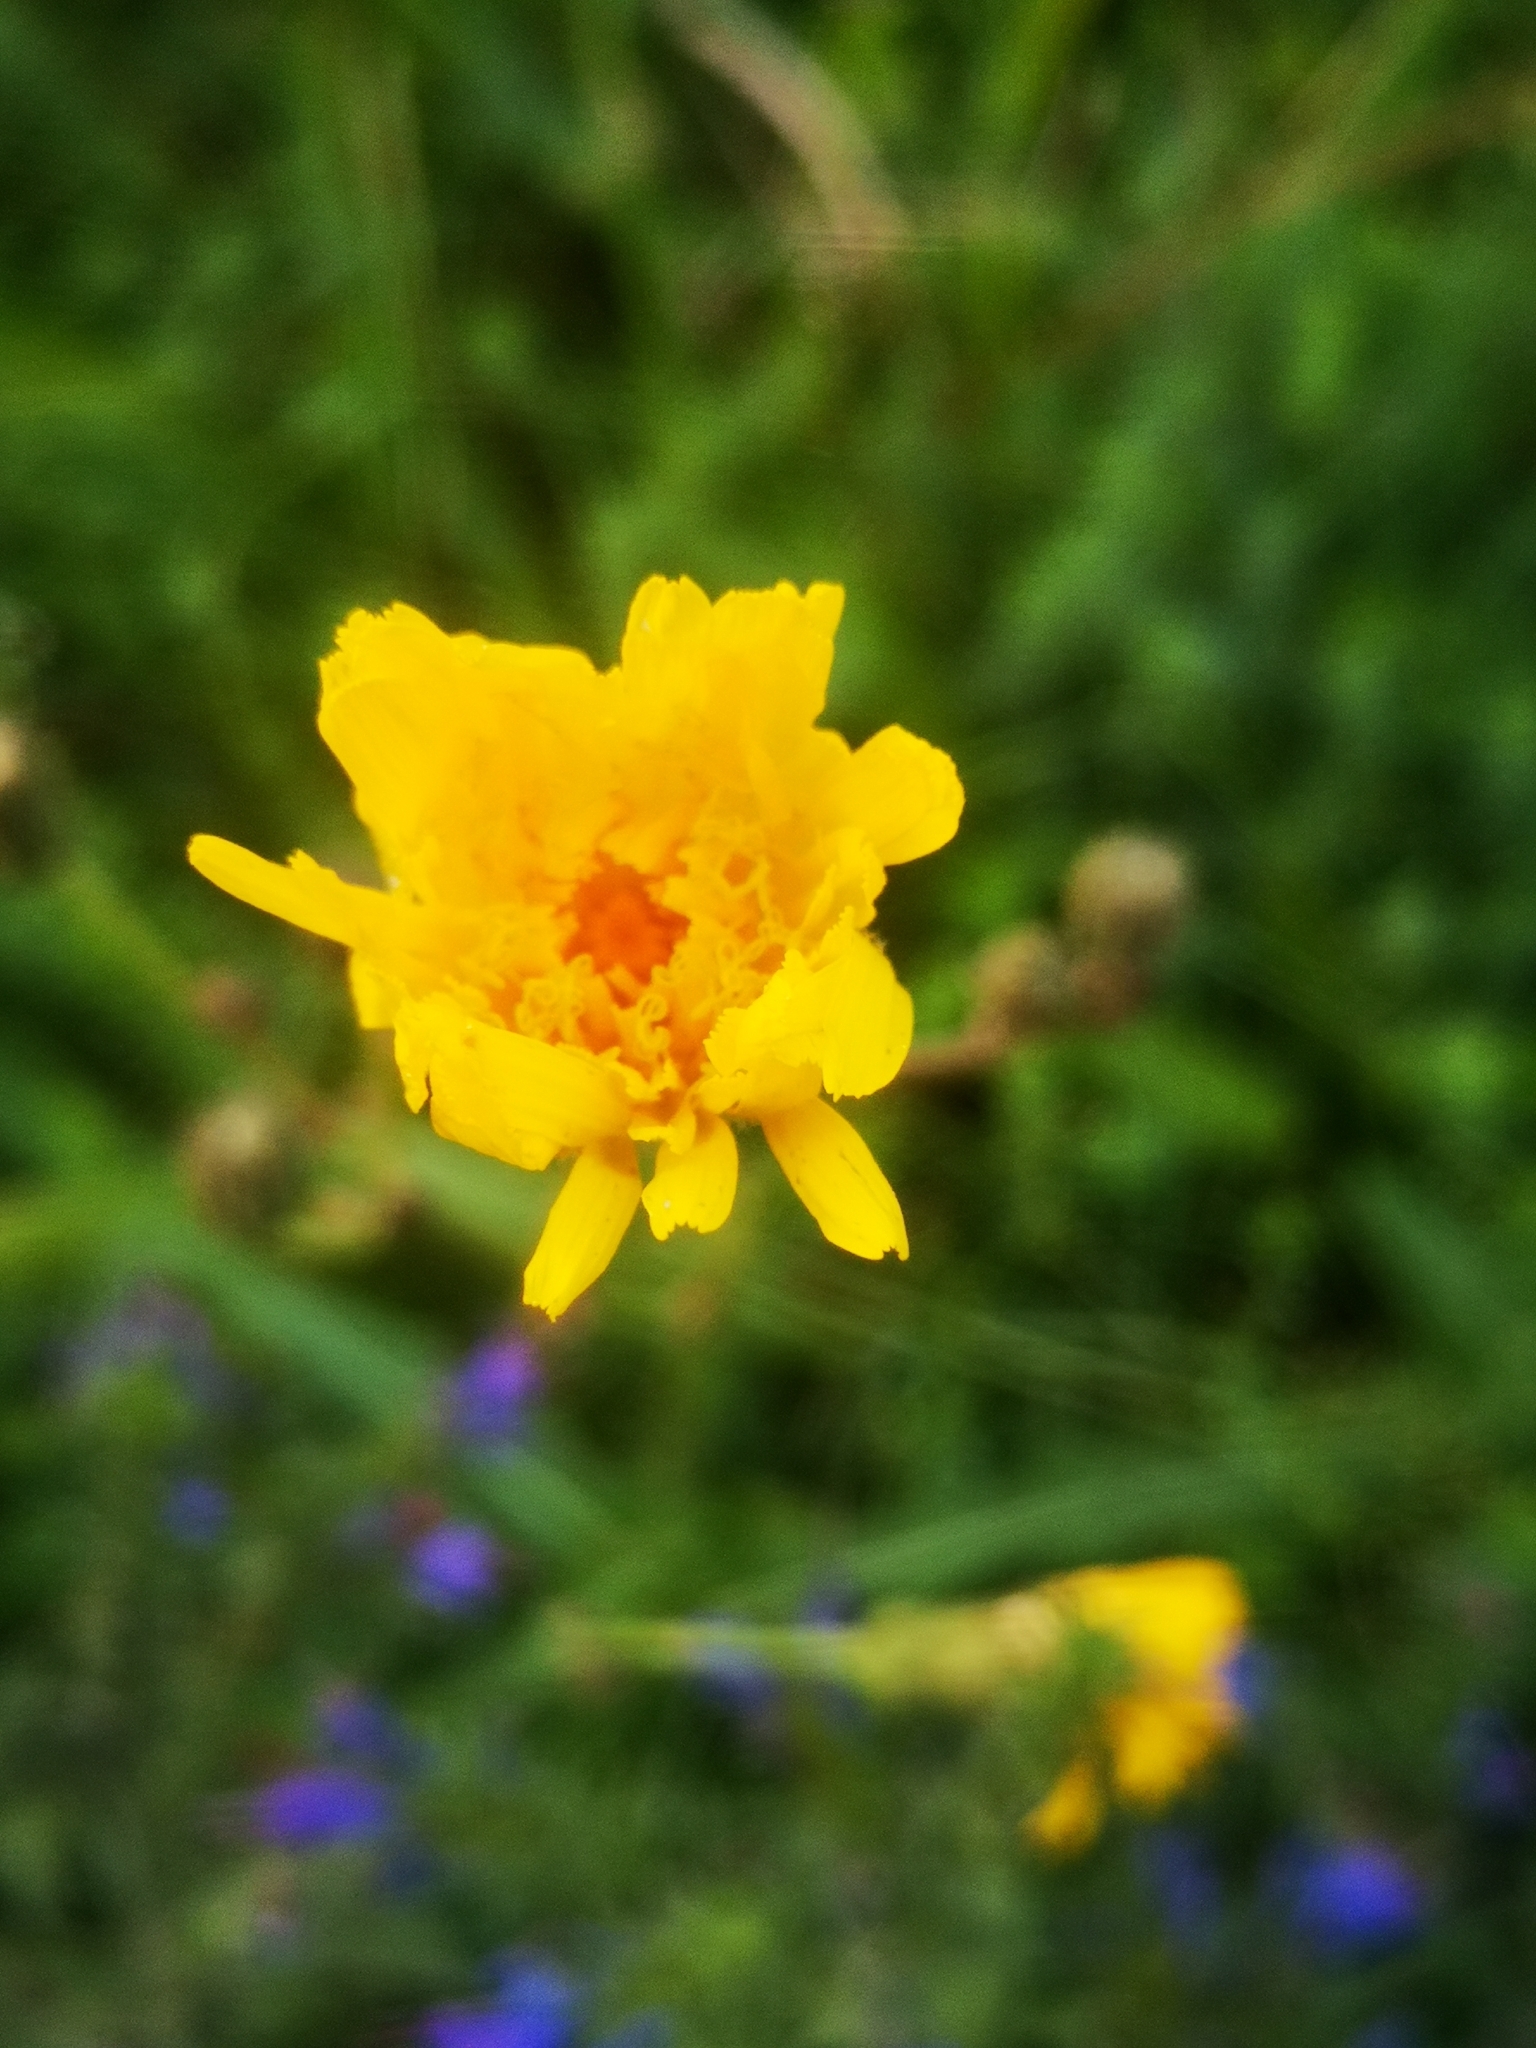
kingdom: Plantae
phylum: Tracheophyta
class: Magnoliopsida
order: Asterales
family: Asteraceae
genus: Sonchus
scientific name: Sonchus arvensis
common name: Perennial sow-thistle
